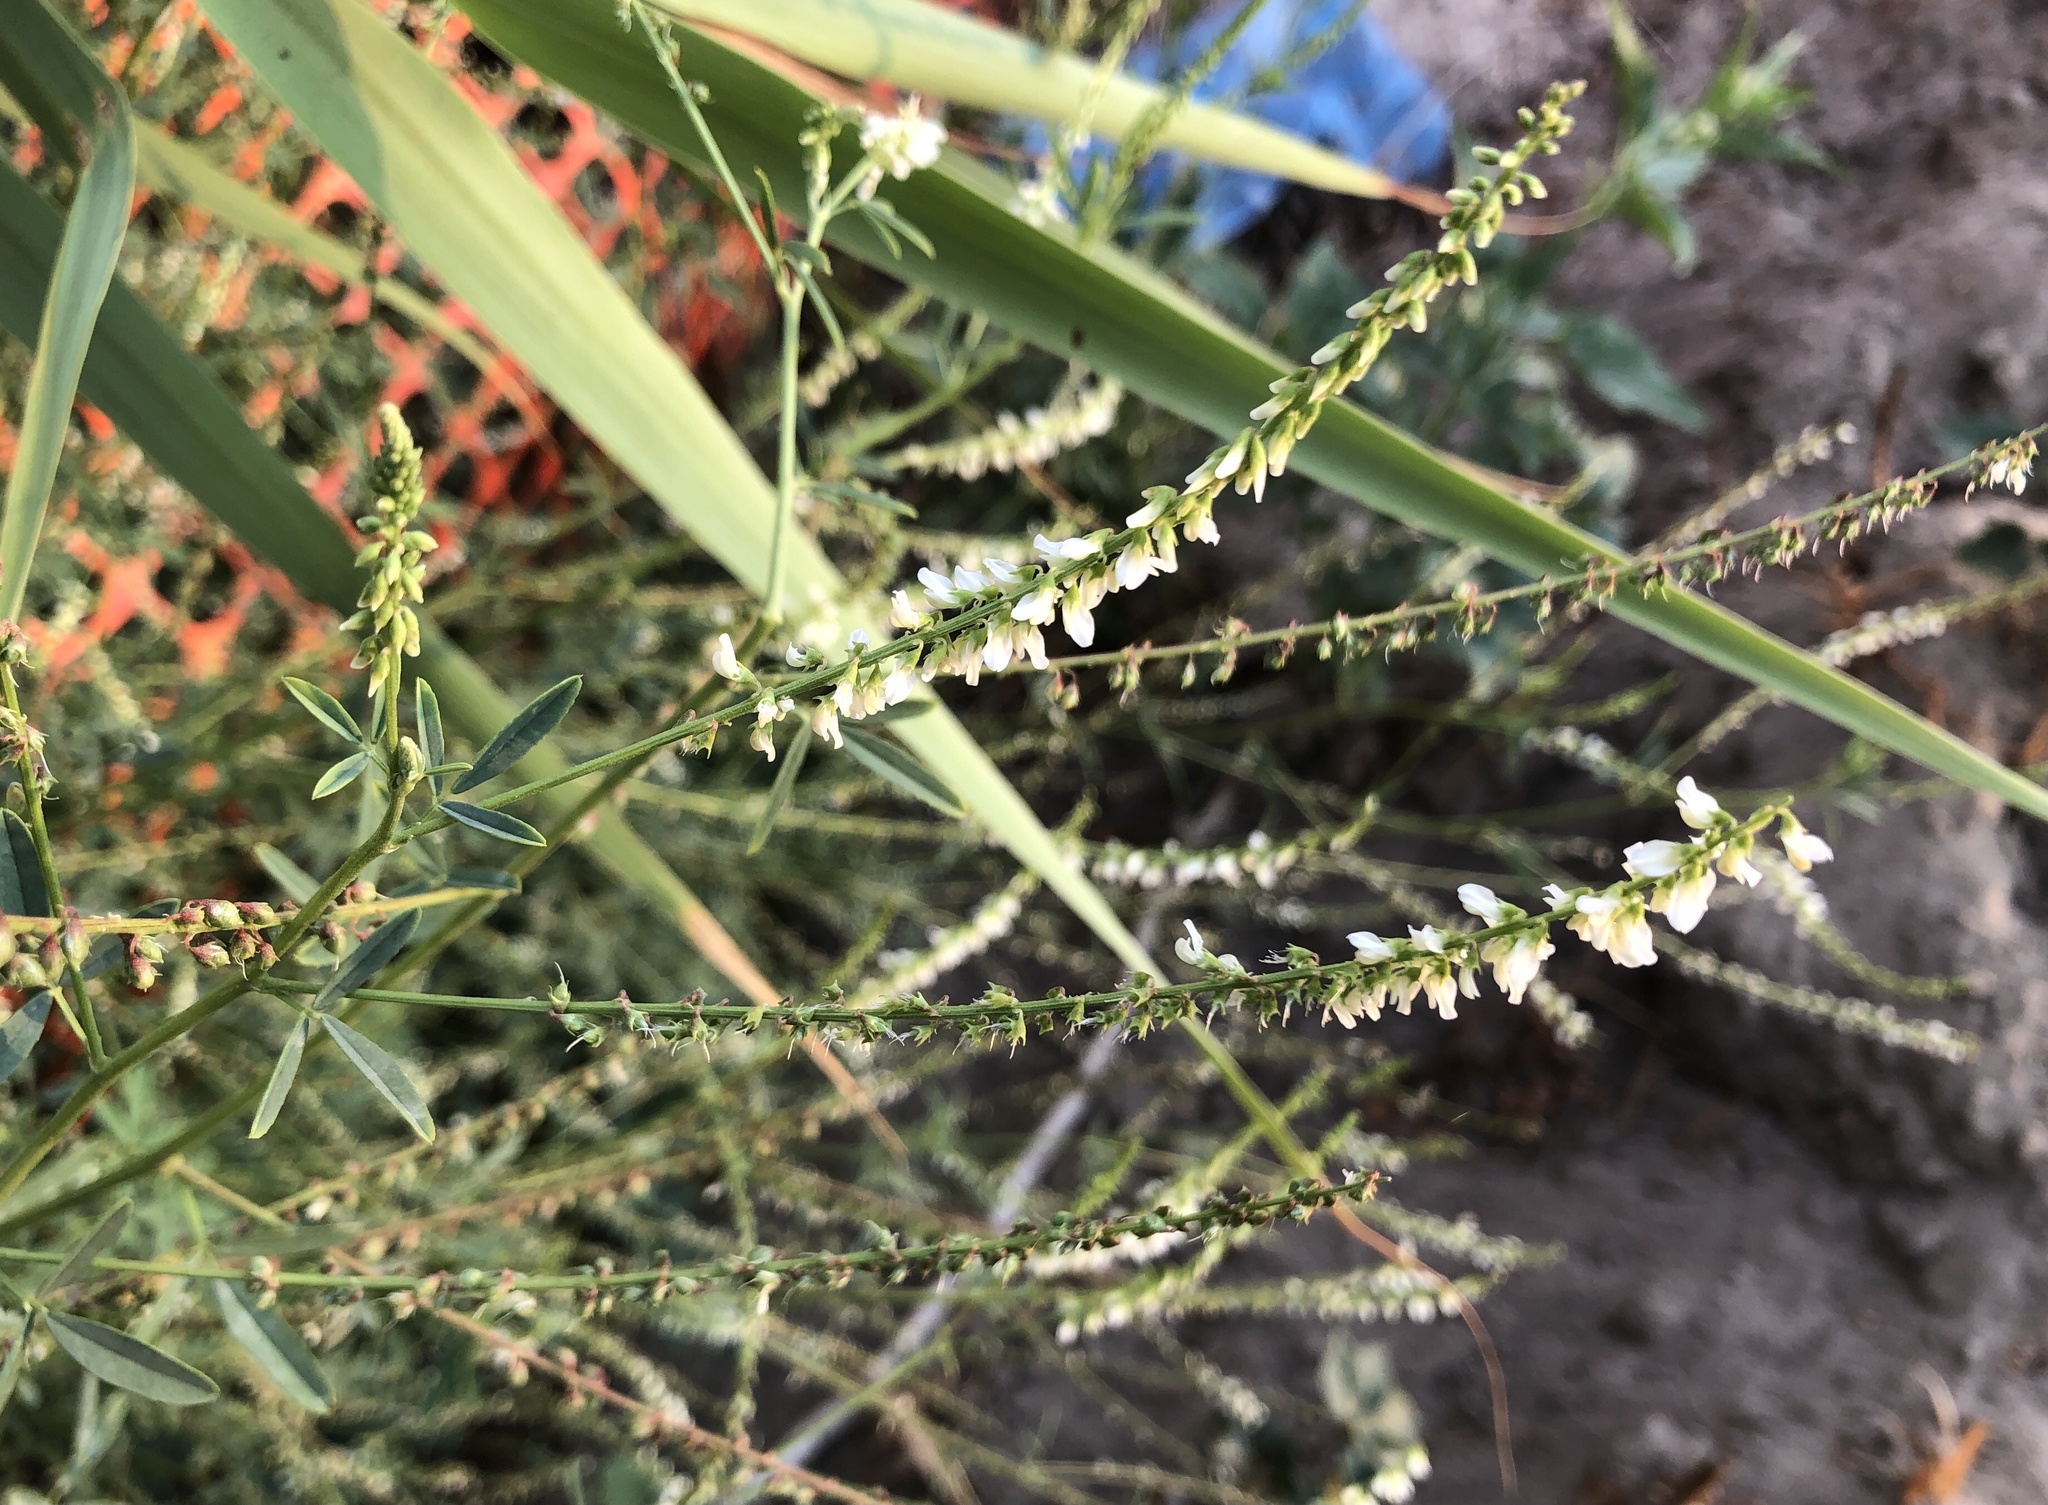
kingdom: Plantae
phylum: Tracheophyta
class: Magnoliopsida
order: Fabales
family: Fabaceae
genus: Melilotus
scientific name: Melilotus albus
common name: White melilot
